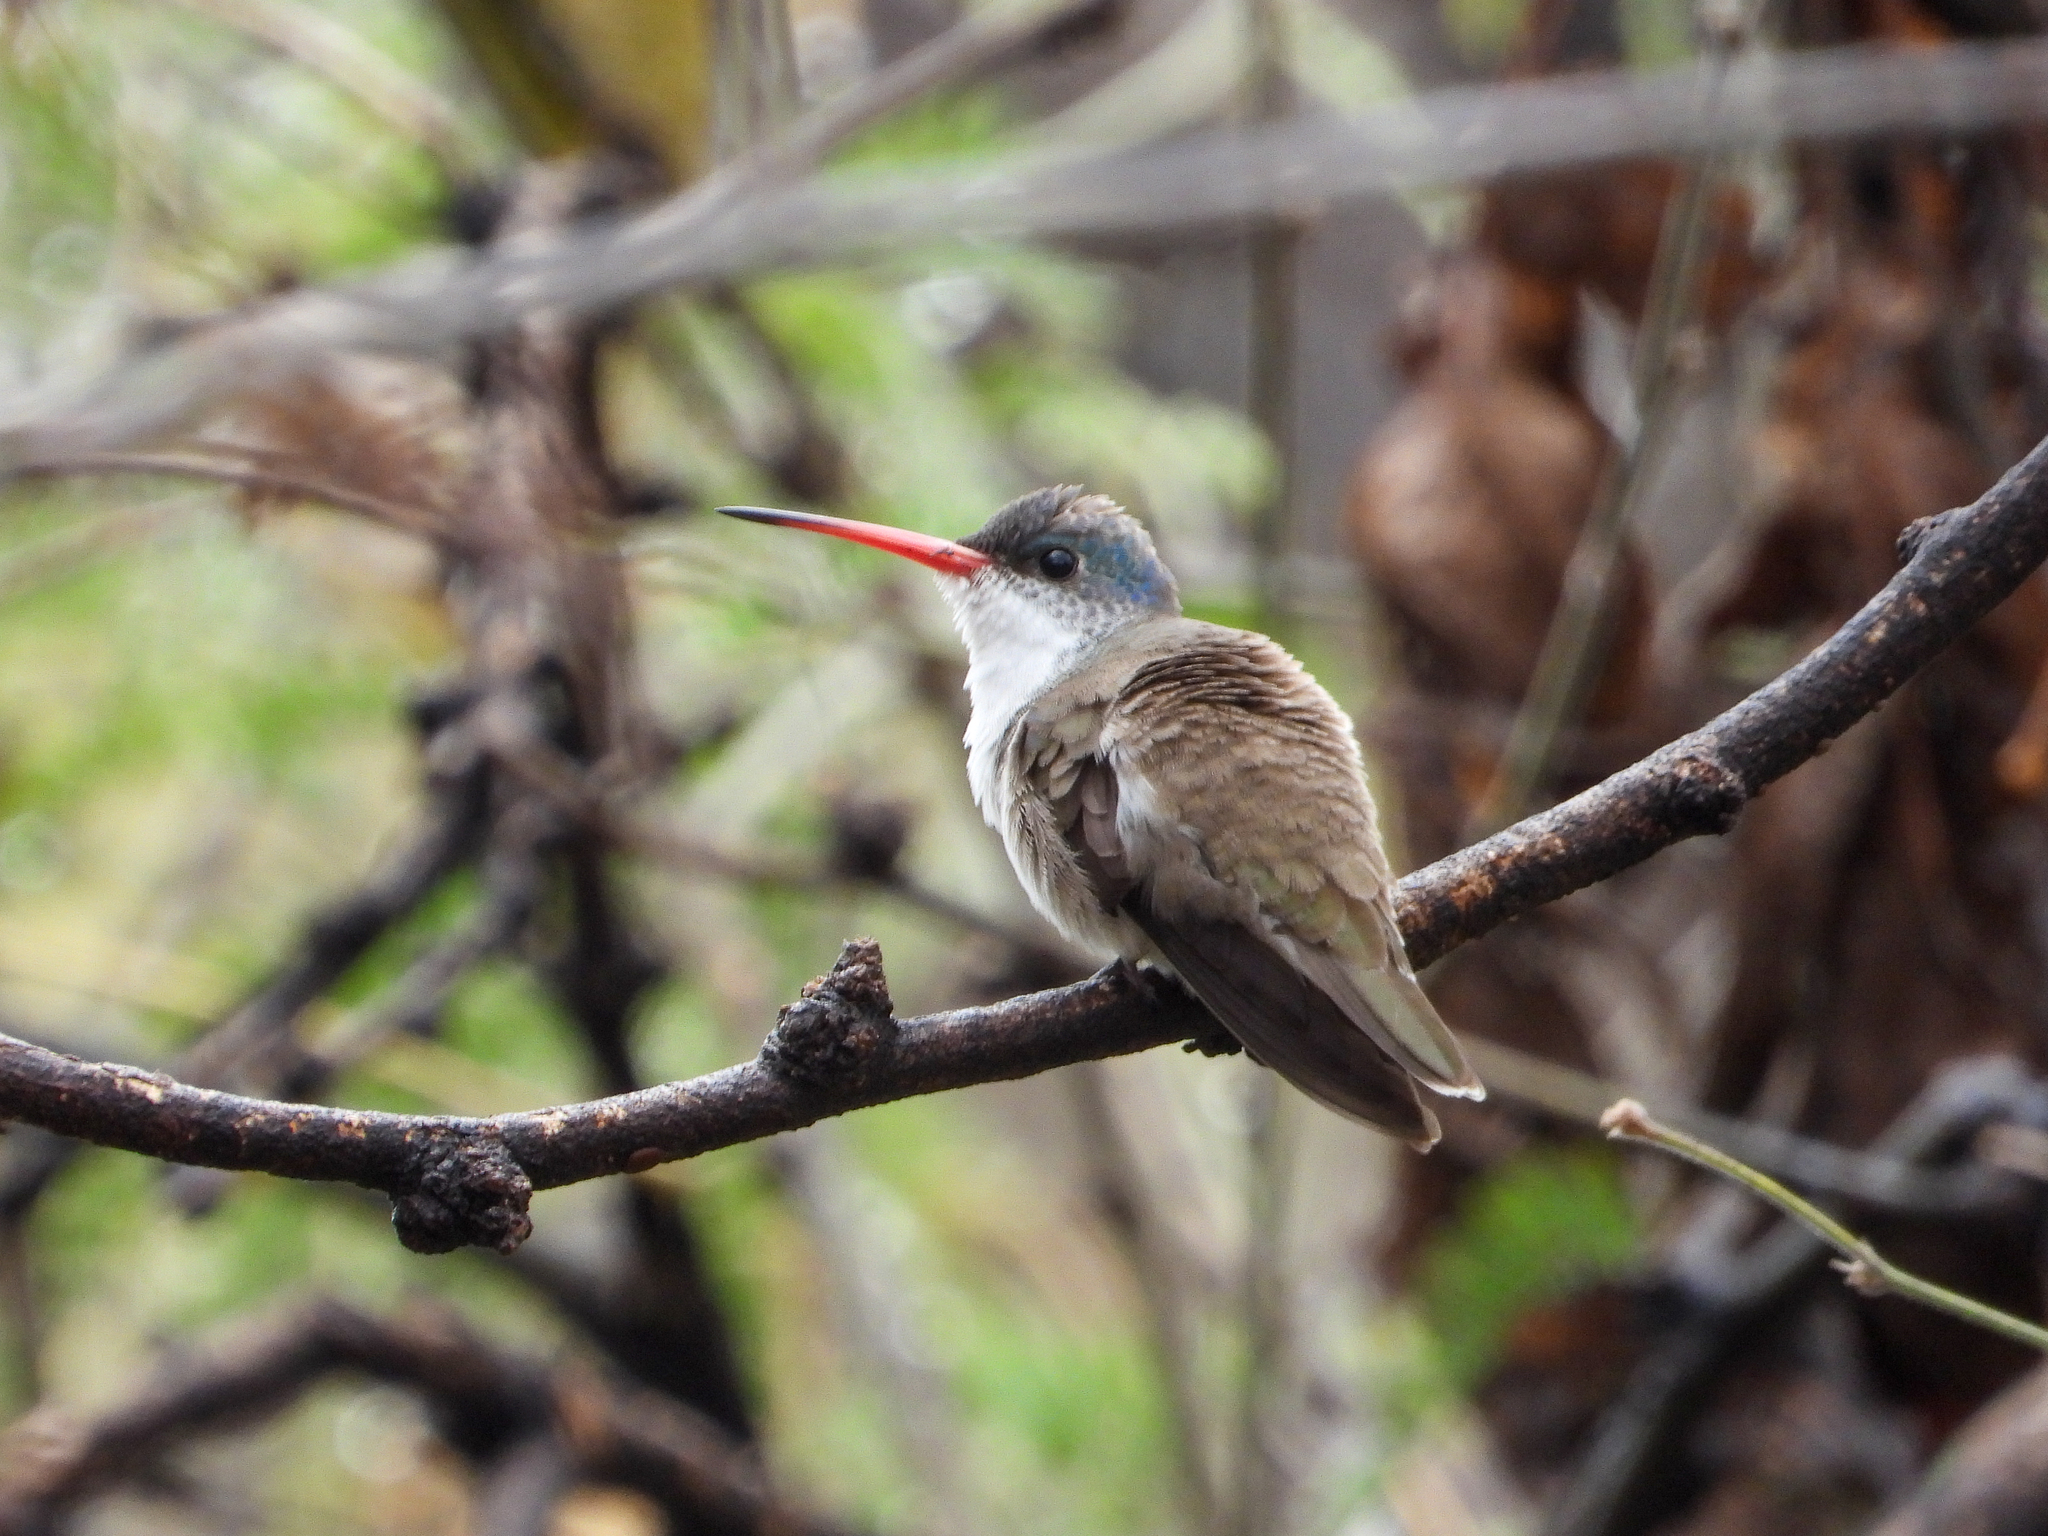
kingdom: Animalia
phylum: Chordata
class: Aves
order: Apodiformes
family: Trochilidae
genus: Leucolia
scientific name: Leucolia violiceps
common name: Violet-crowned hummingbird
